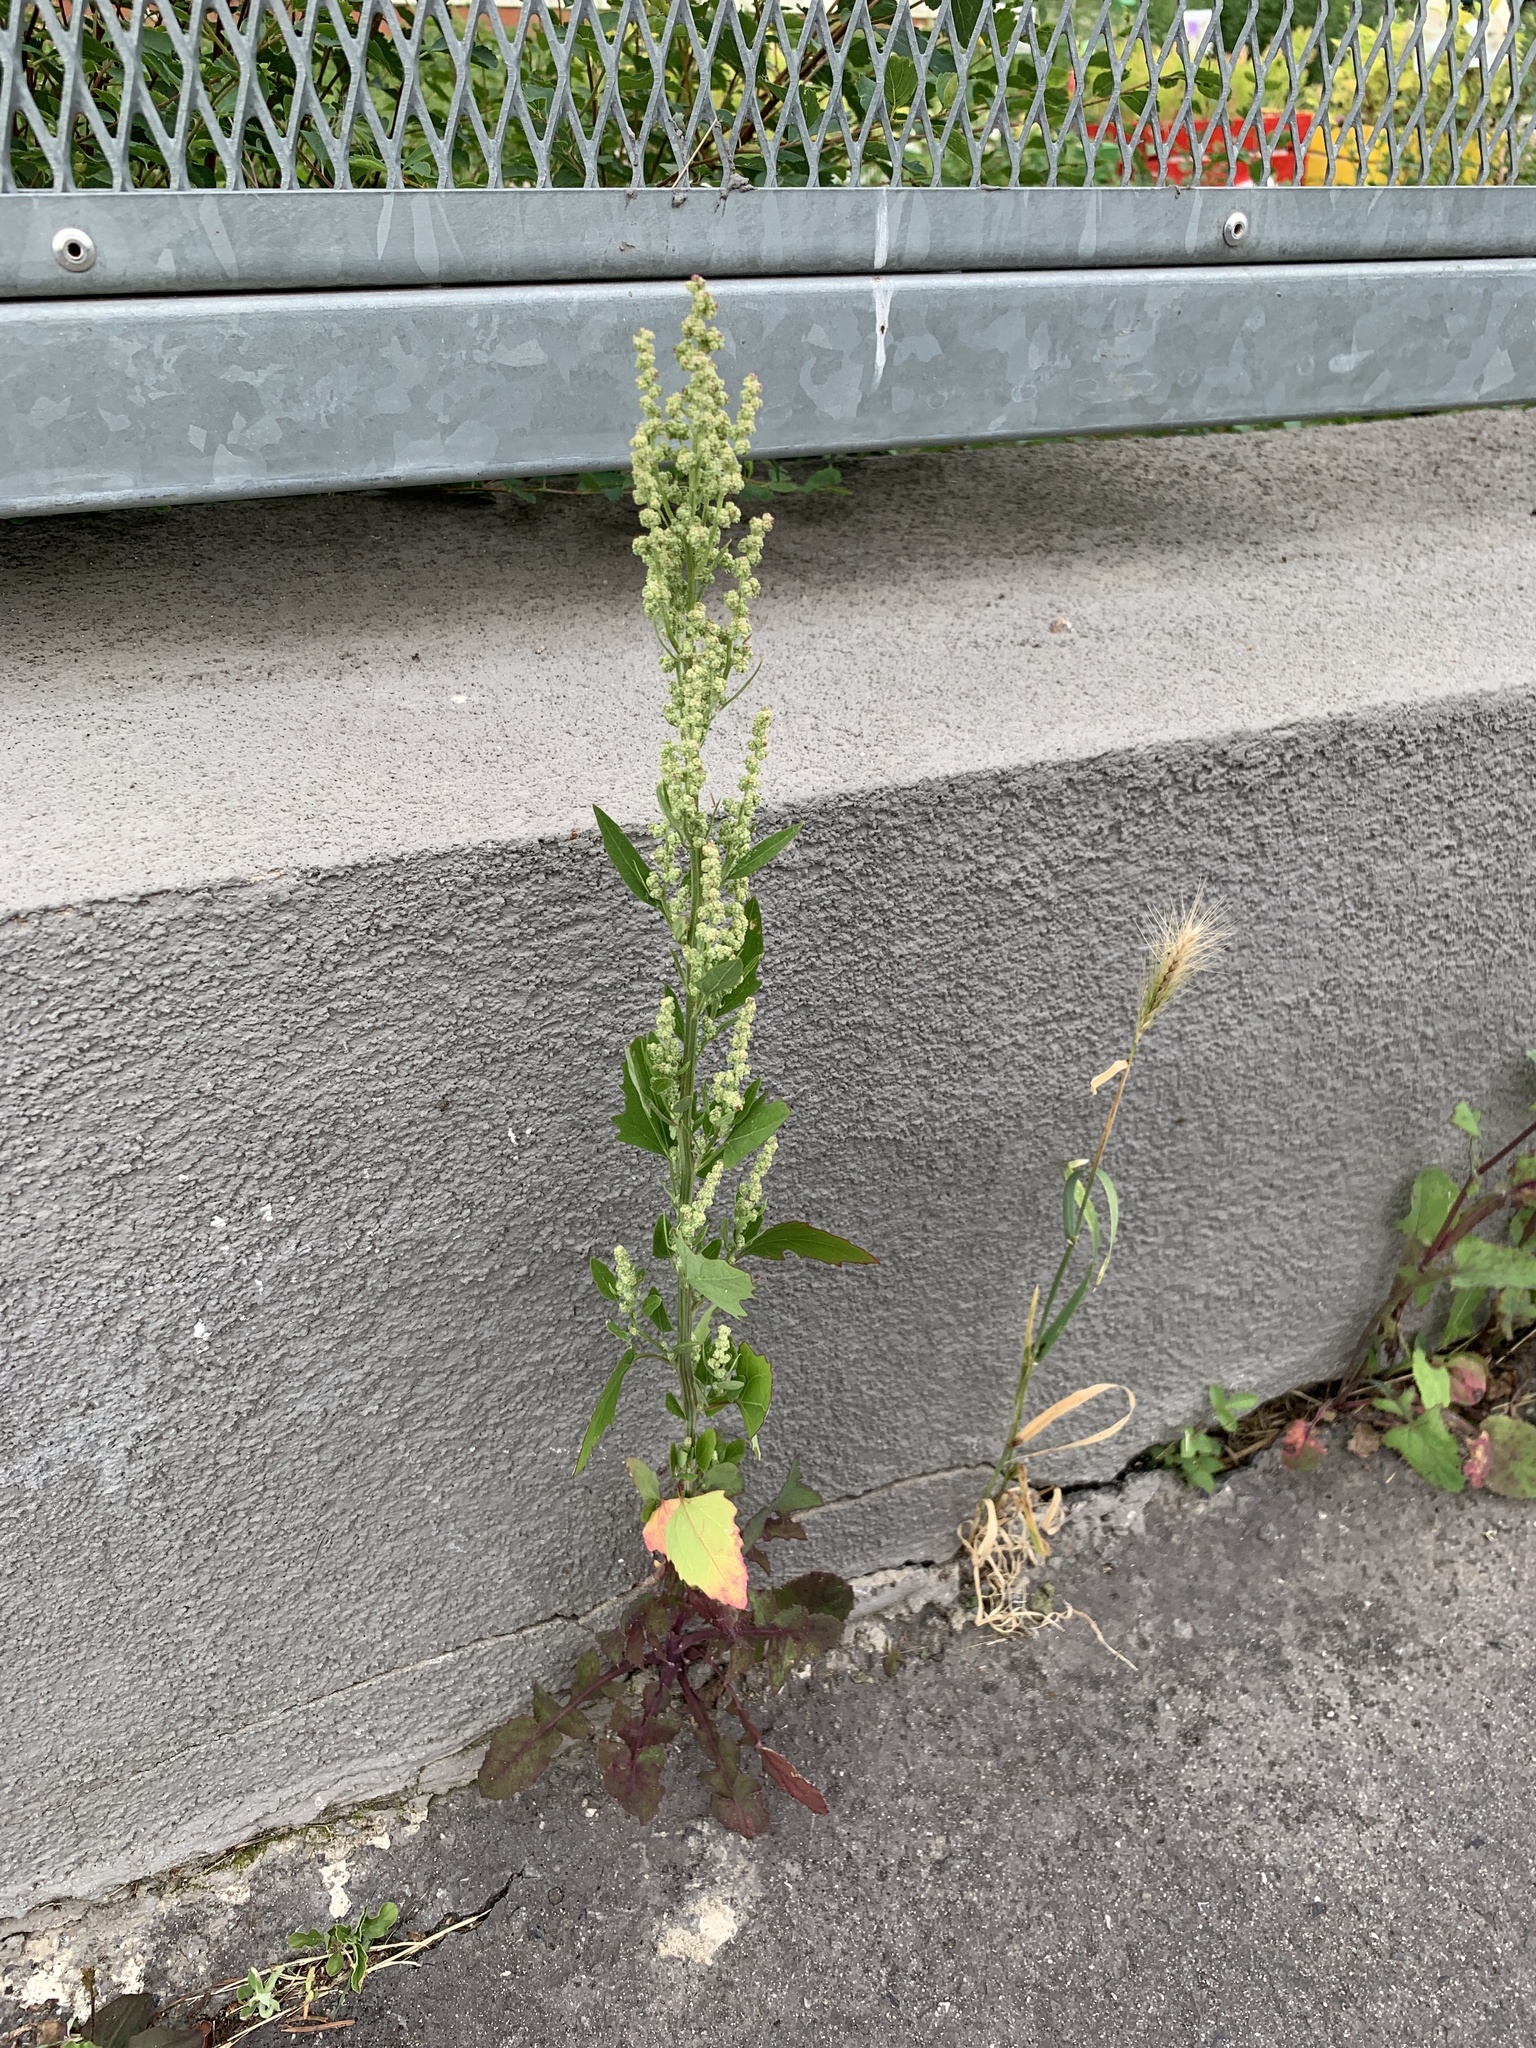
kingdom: Plantae
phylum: Tracheophyta
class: Magnoliopsida
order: Caryophyllales
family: Amaranthaceae
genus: Chenopodium
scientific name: Chenopodium album
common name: Fat-hen
